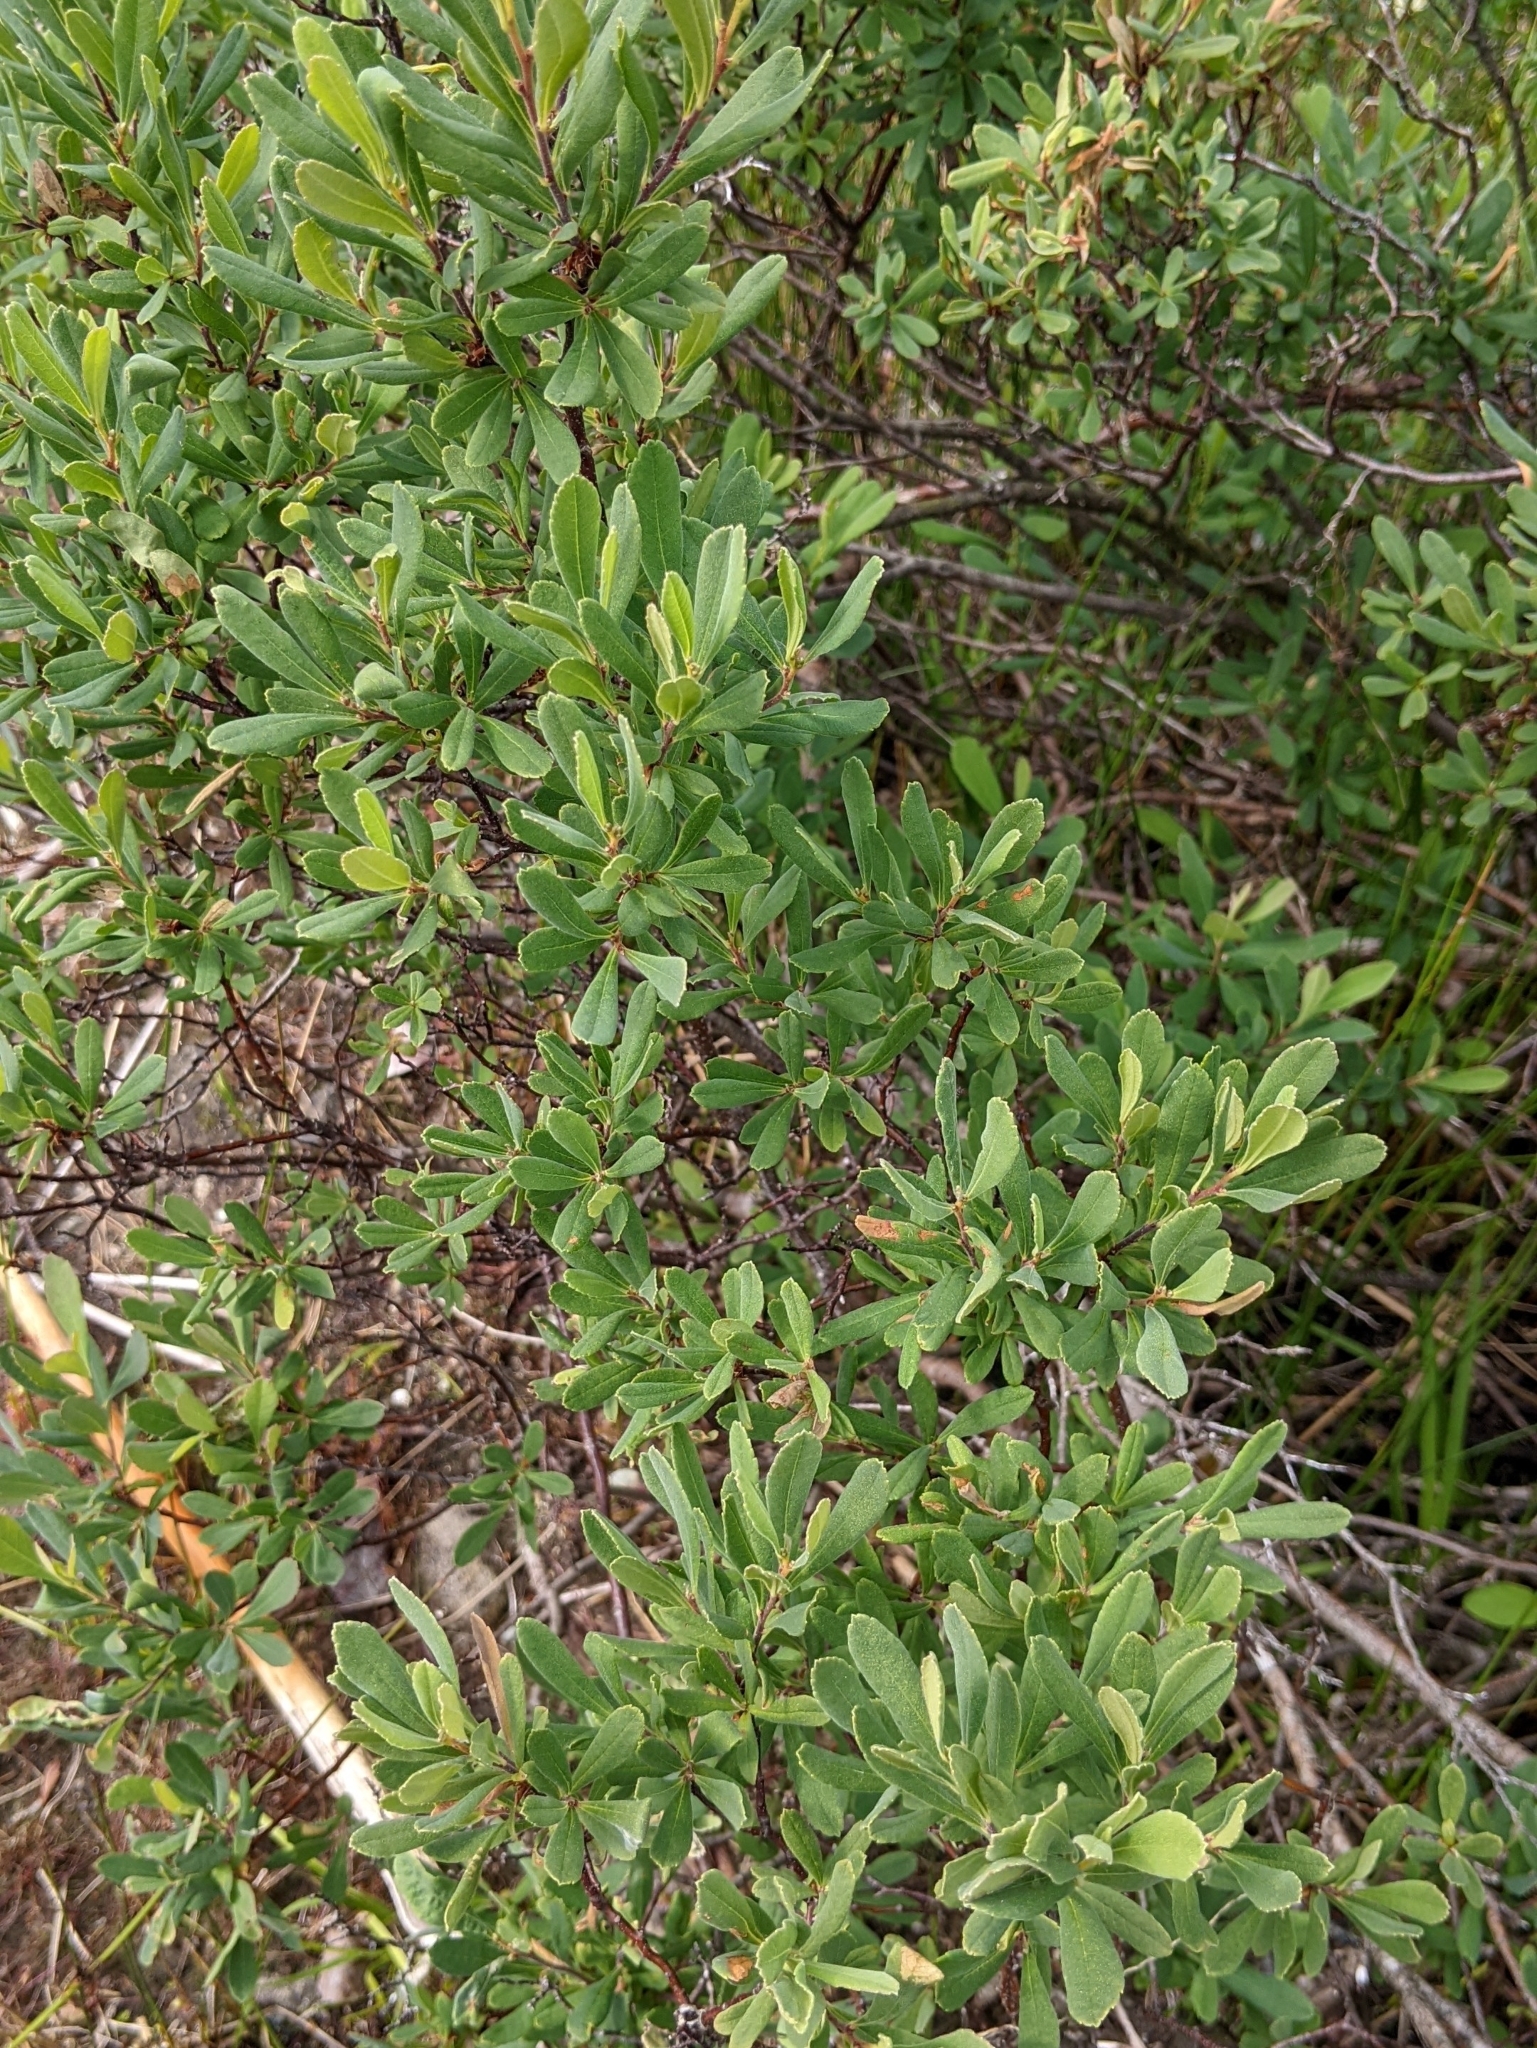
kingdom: Plantae
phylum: Tracheophyta
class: Magnoliopsida
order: Fagales
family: Myricaceae
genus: Myrica
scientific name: Myrica gale
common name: Sweet gale
